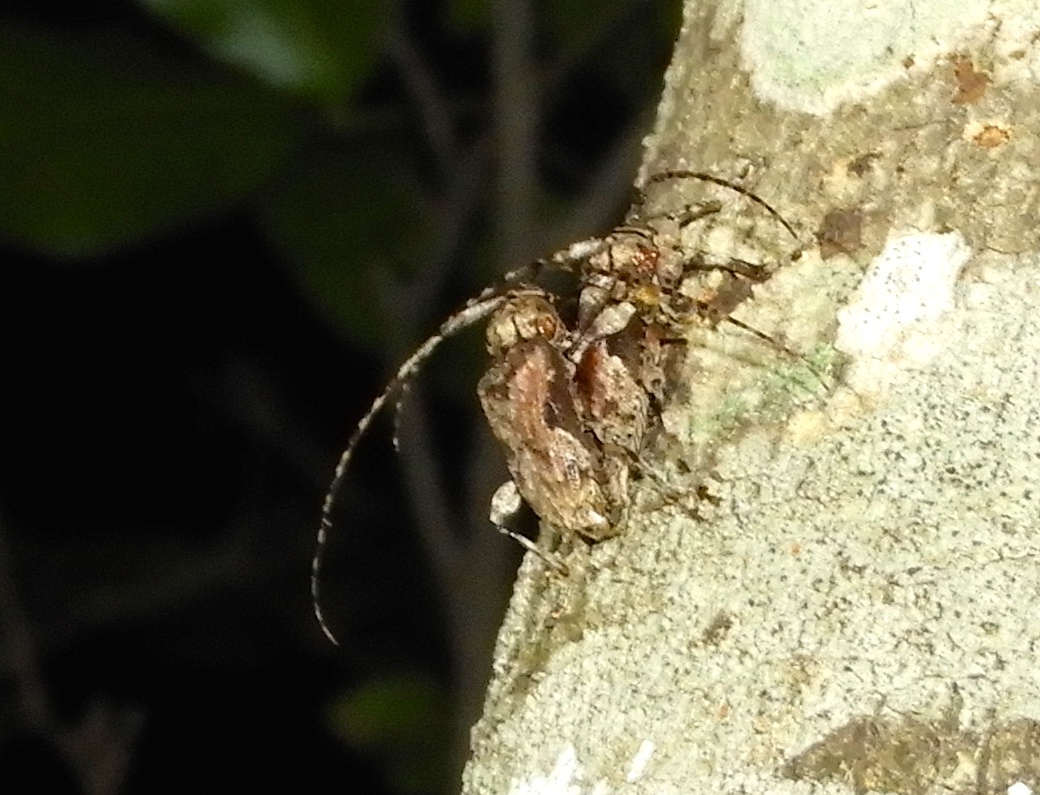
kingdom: Animalia
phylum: Arthropoda
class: Insecta
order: Coleoptera
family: Cerambycidae
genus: Lagocheirus
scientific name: Lagocheirus
